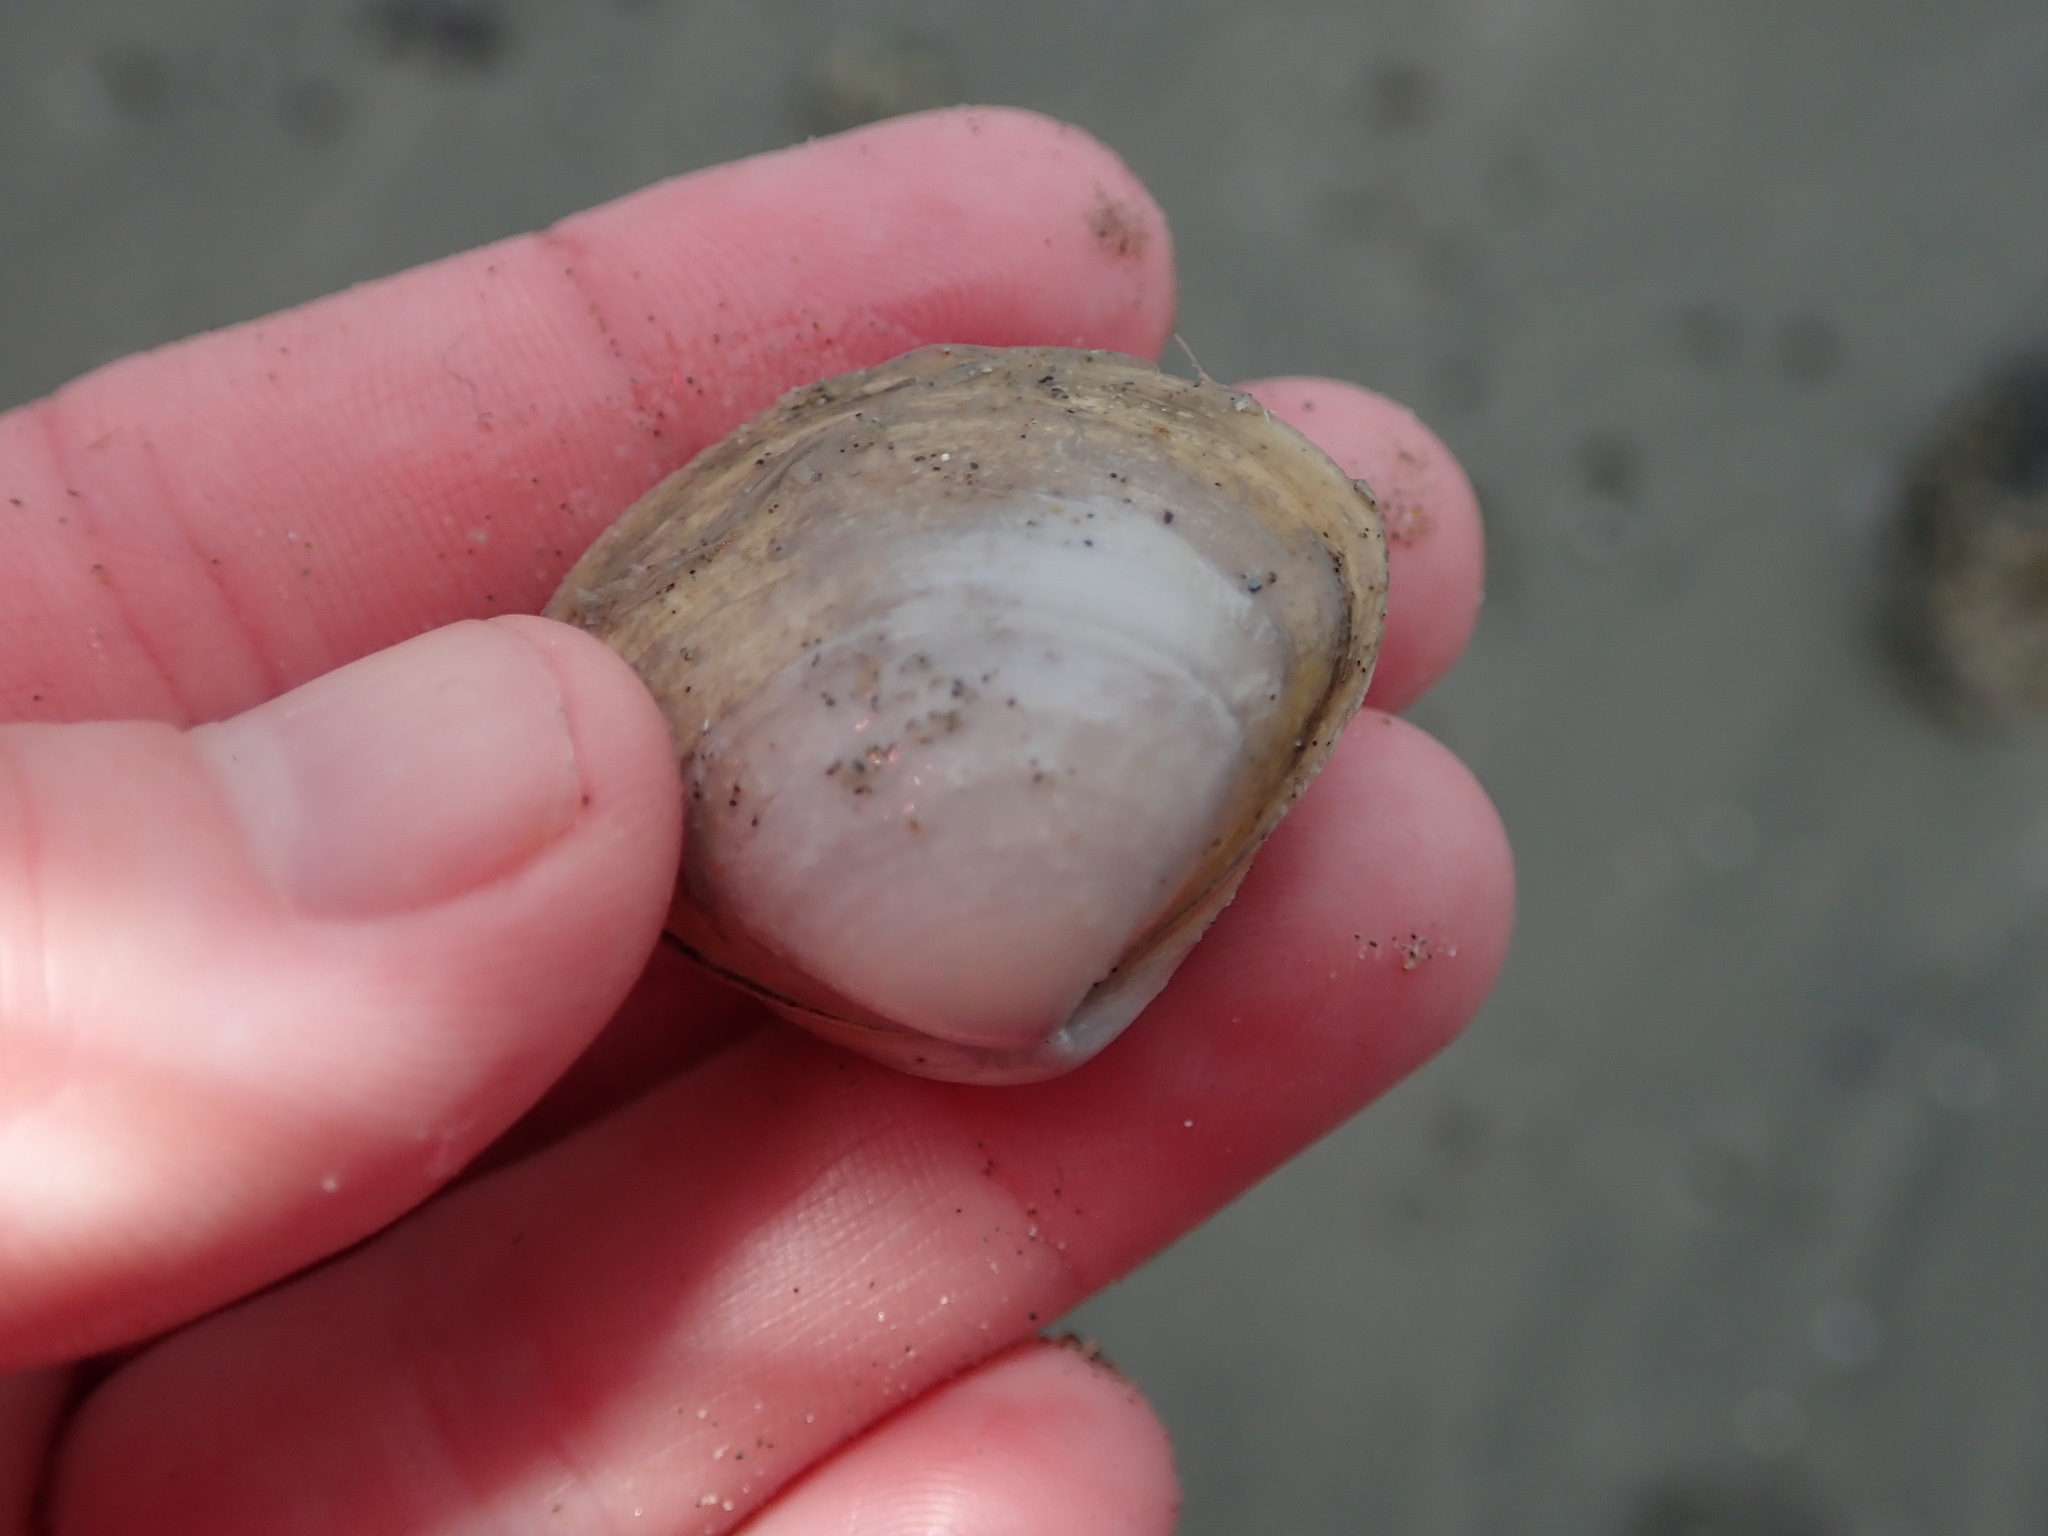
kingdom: Animalia
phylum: Mollusca
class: Bivalvia
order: Venerida
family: Mactridae
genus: Spisula
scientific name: Spisula solidissima
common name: Atlantic surf clam
